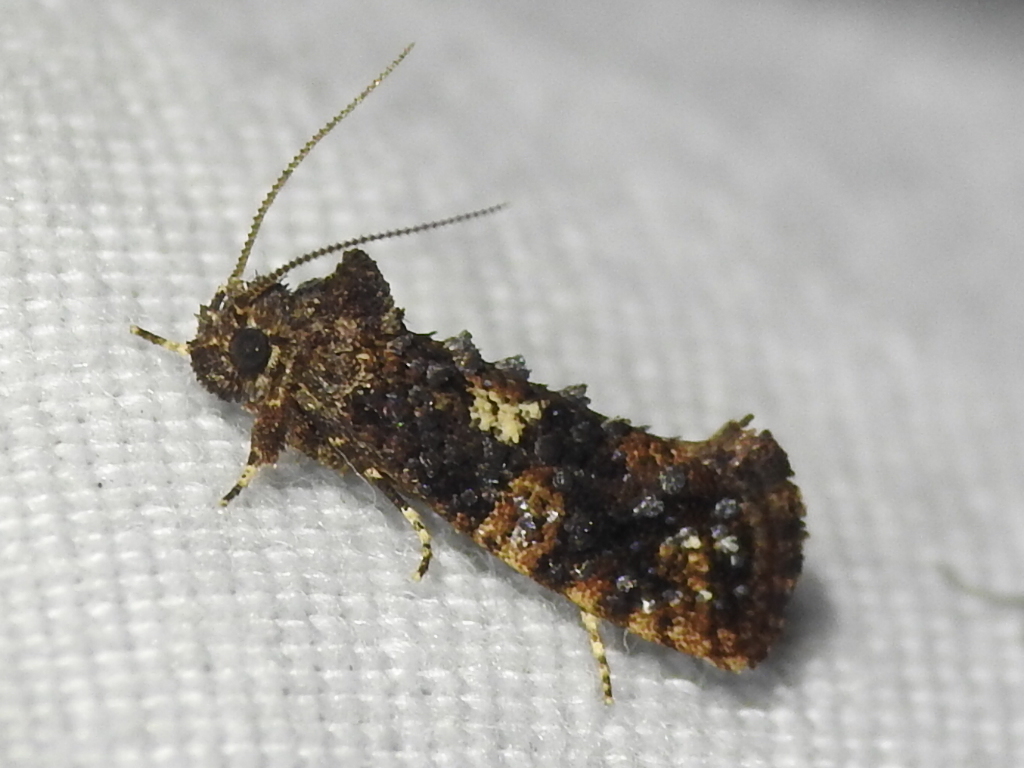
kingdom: Animalia
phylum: Arthropoda
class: Insecta
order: Lepidoptera
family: Tineidae
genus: Acrolophus
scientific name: Acrolophus cressoni
